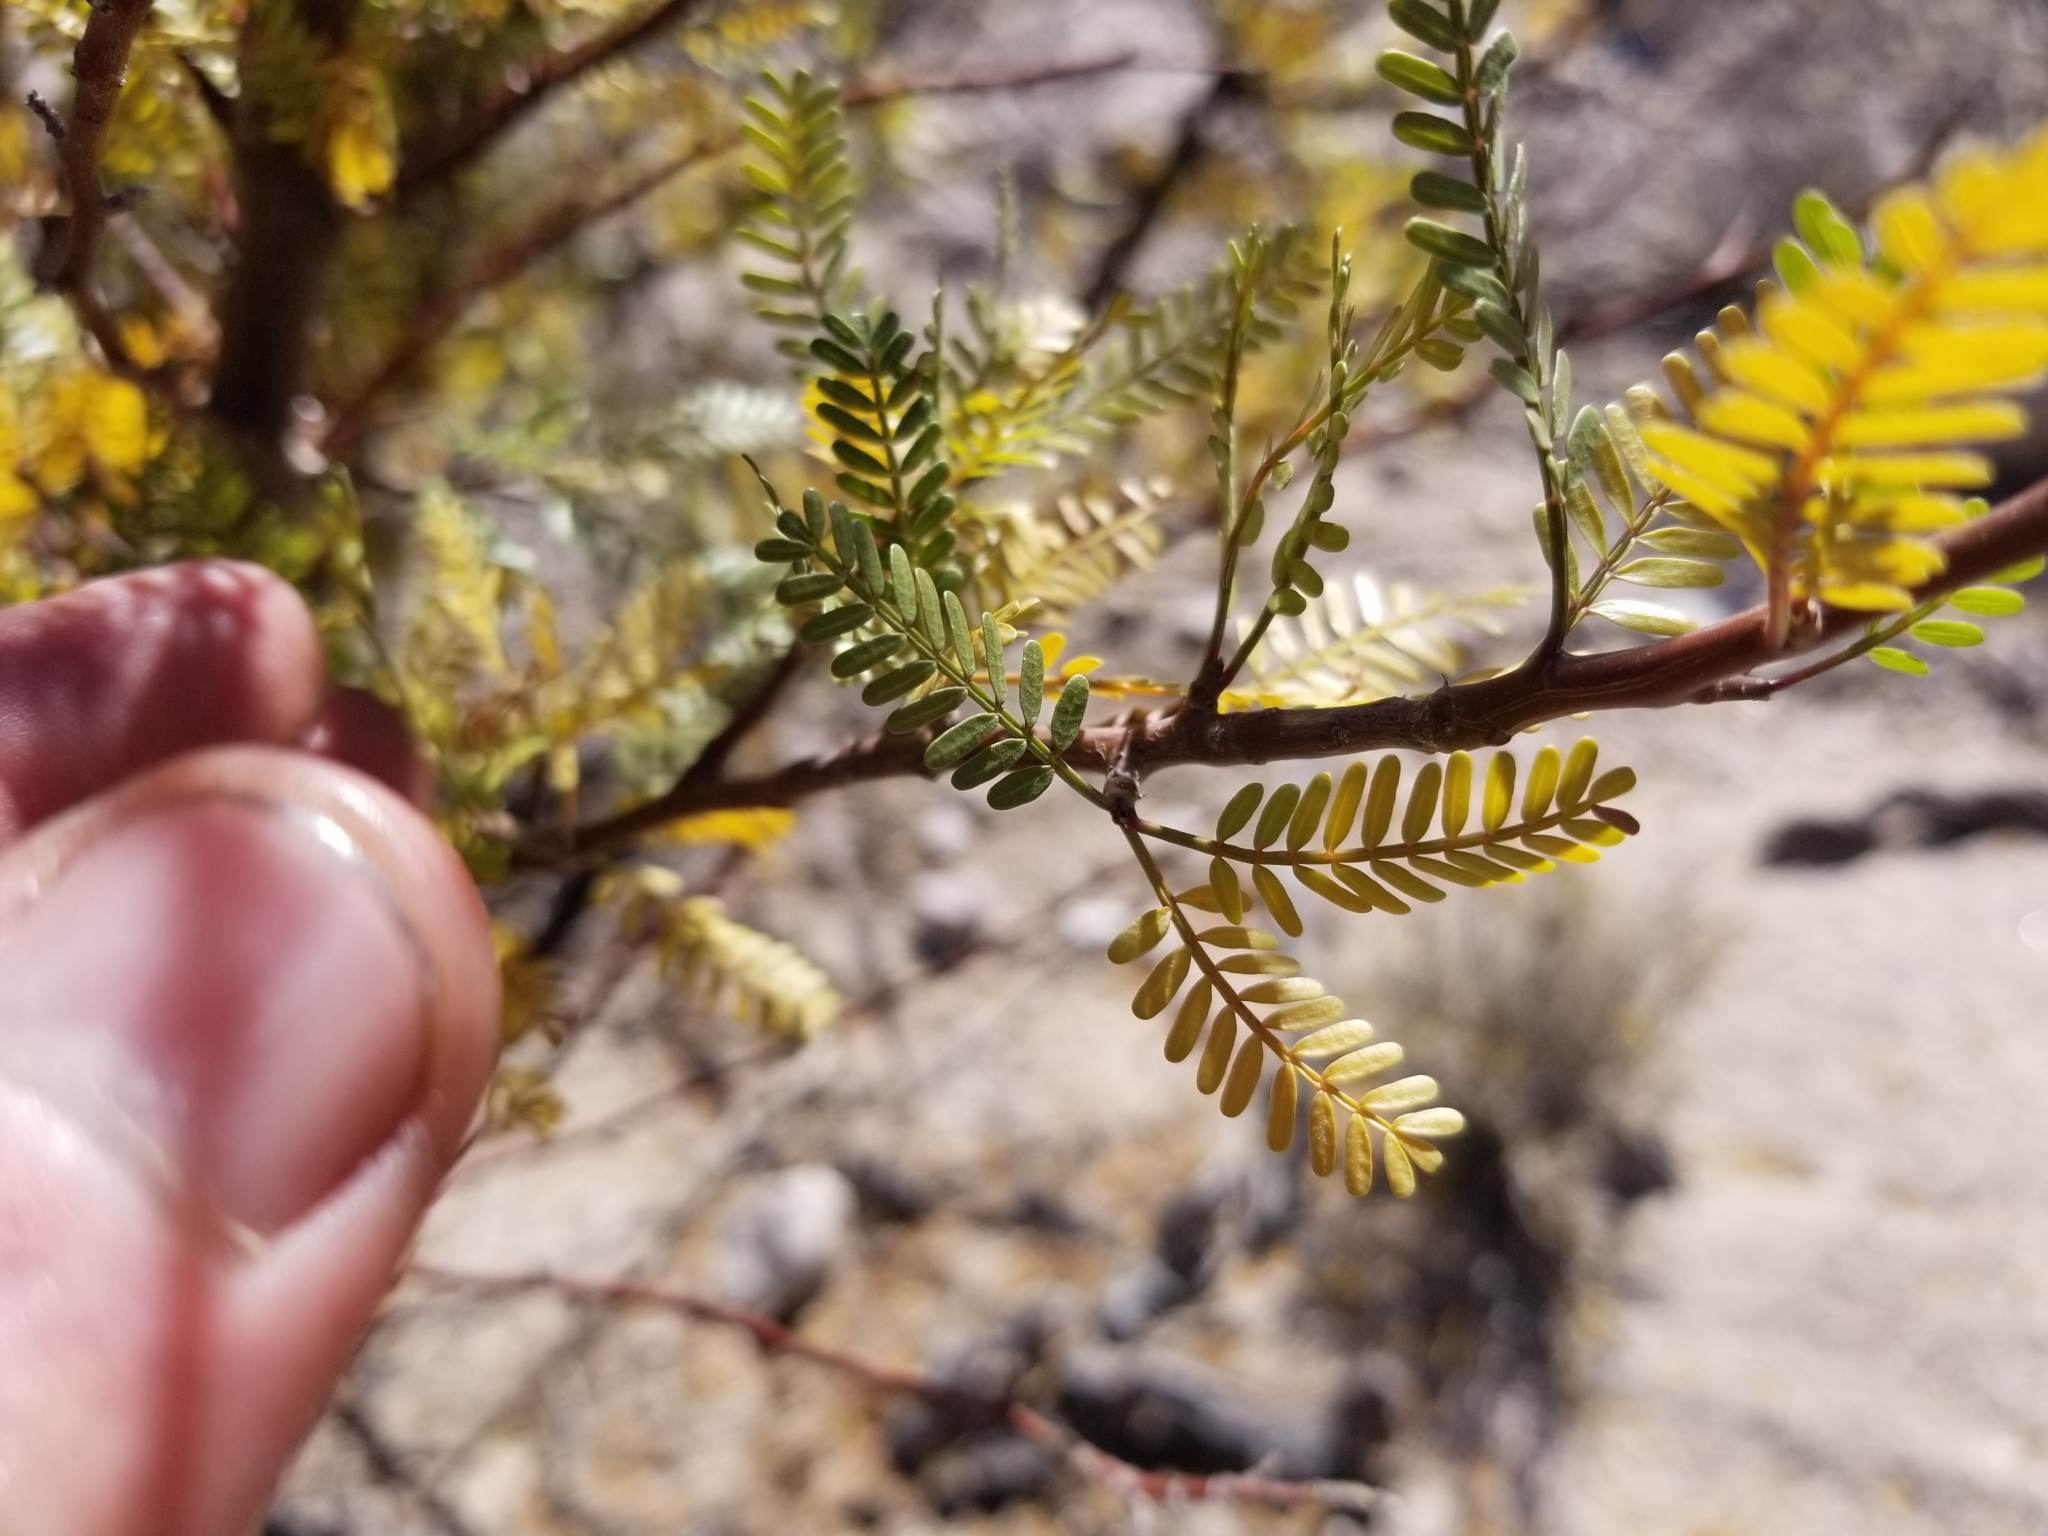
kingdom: Plantae
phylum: Tracheophyta
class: Magnoliopsida
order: Sapindales
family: Burseraceae
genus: Bursera
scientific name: Bursera microphylla
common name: Elephant tree
